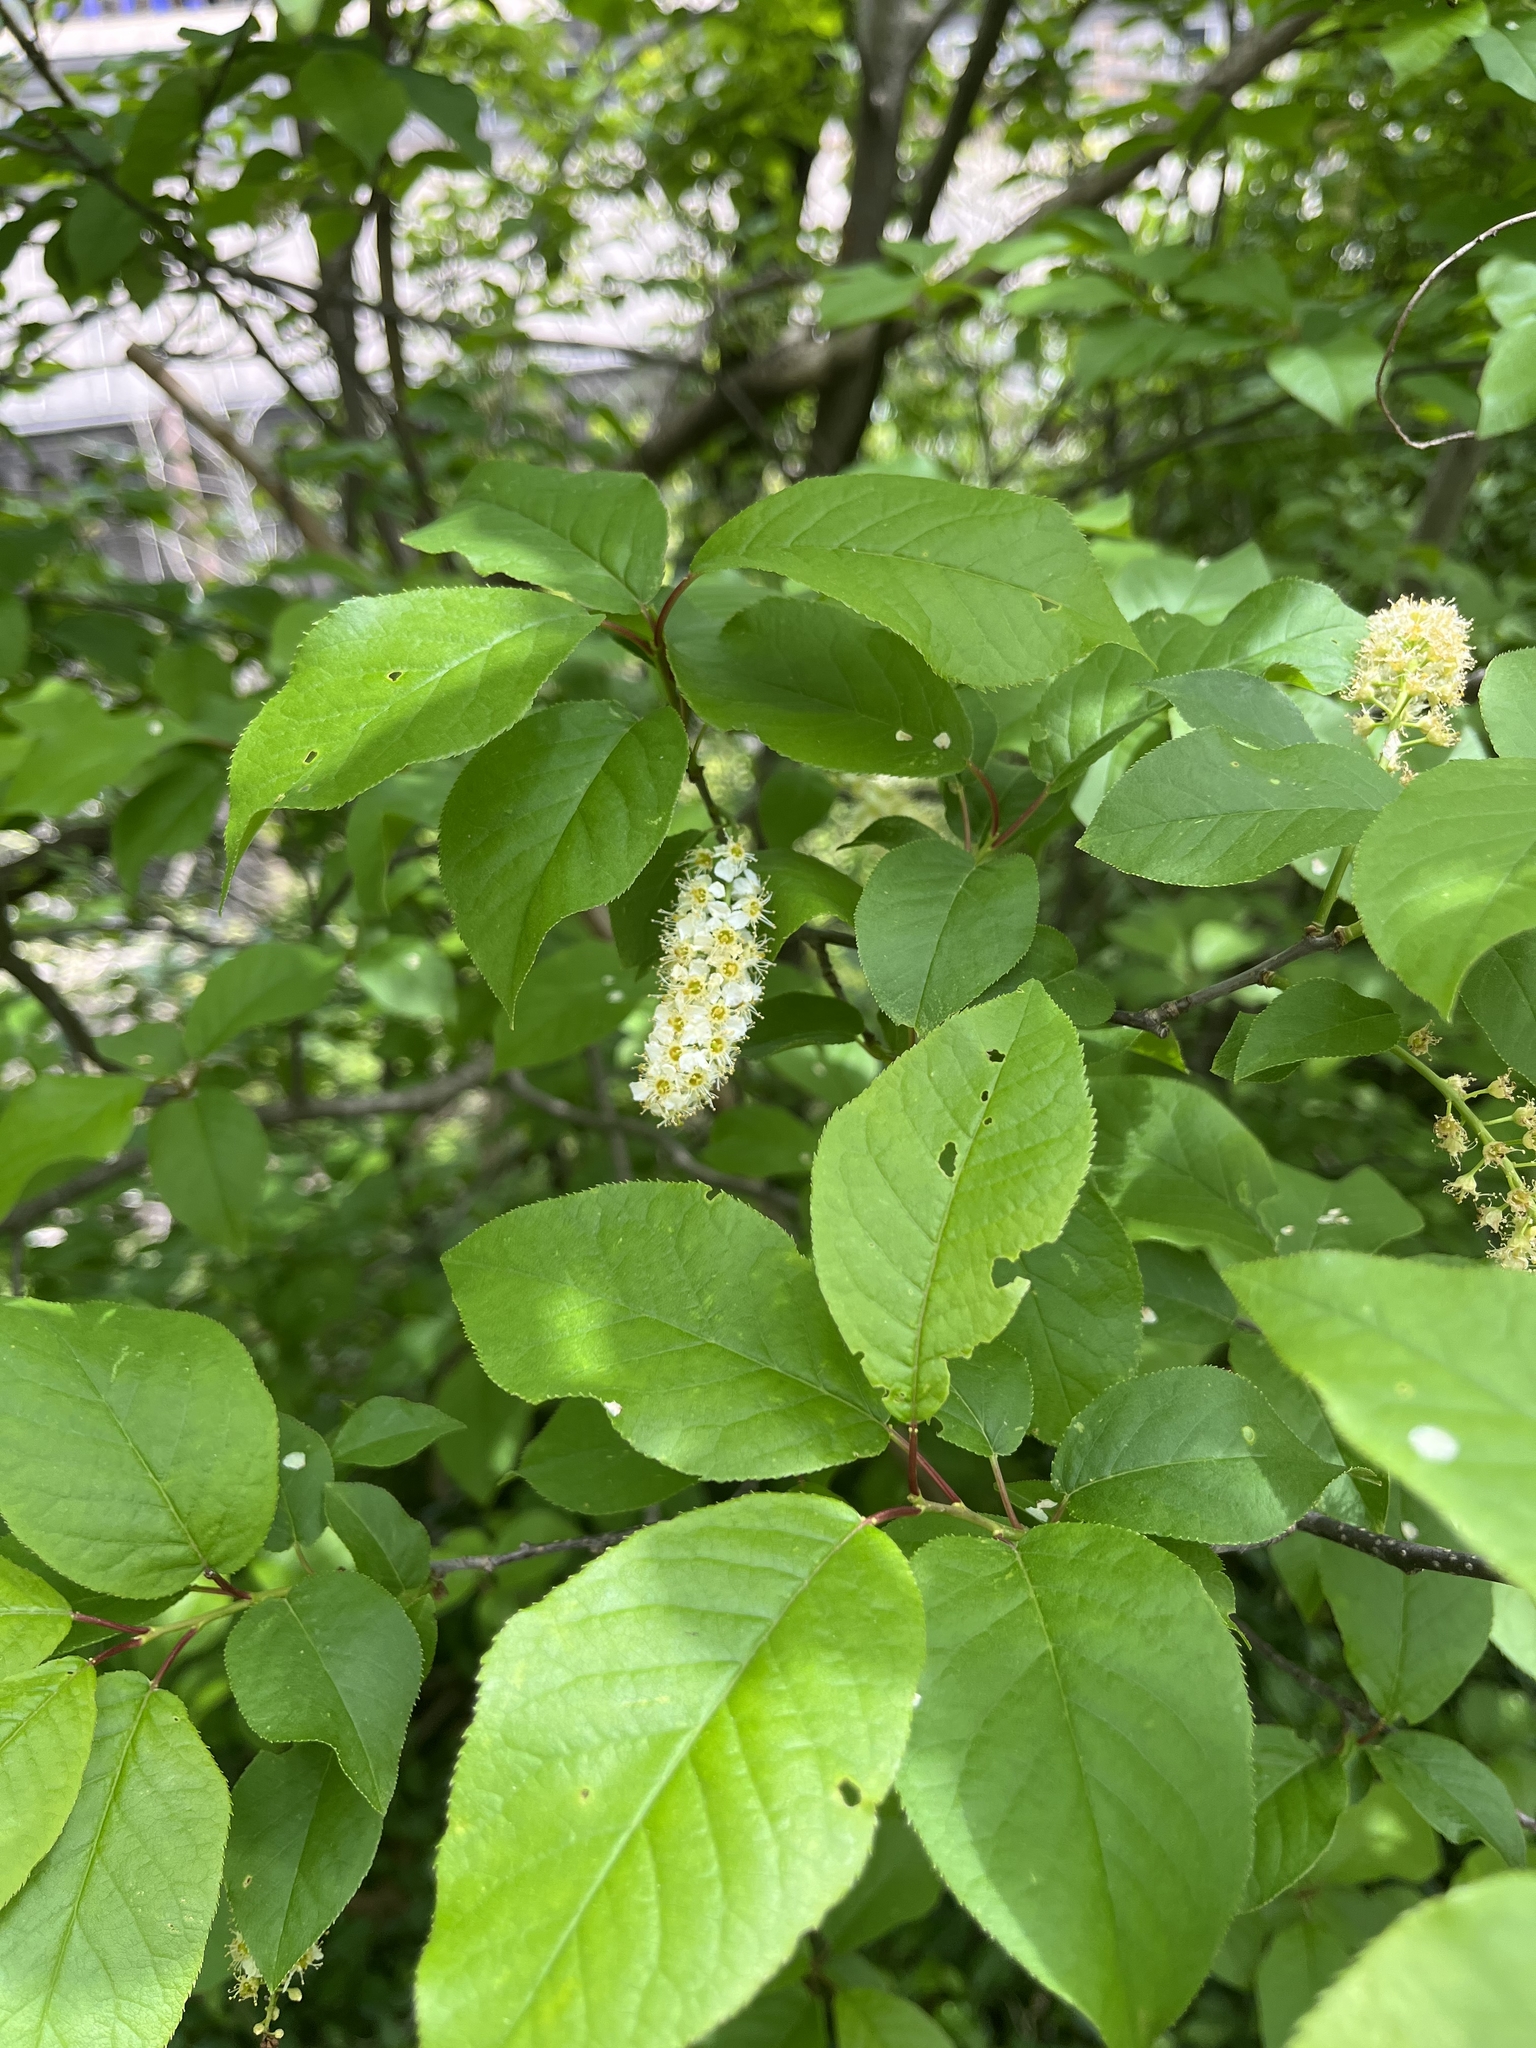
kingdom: Plantae
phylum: Tracheophyta
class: Magnoliopsida
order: Rosales
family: Rosaceae
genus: Prunus
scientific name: Prunus virginiana
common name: Chokecherry
